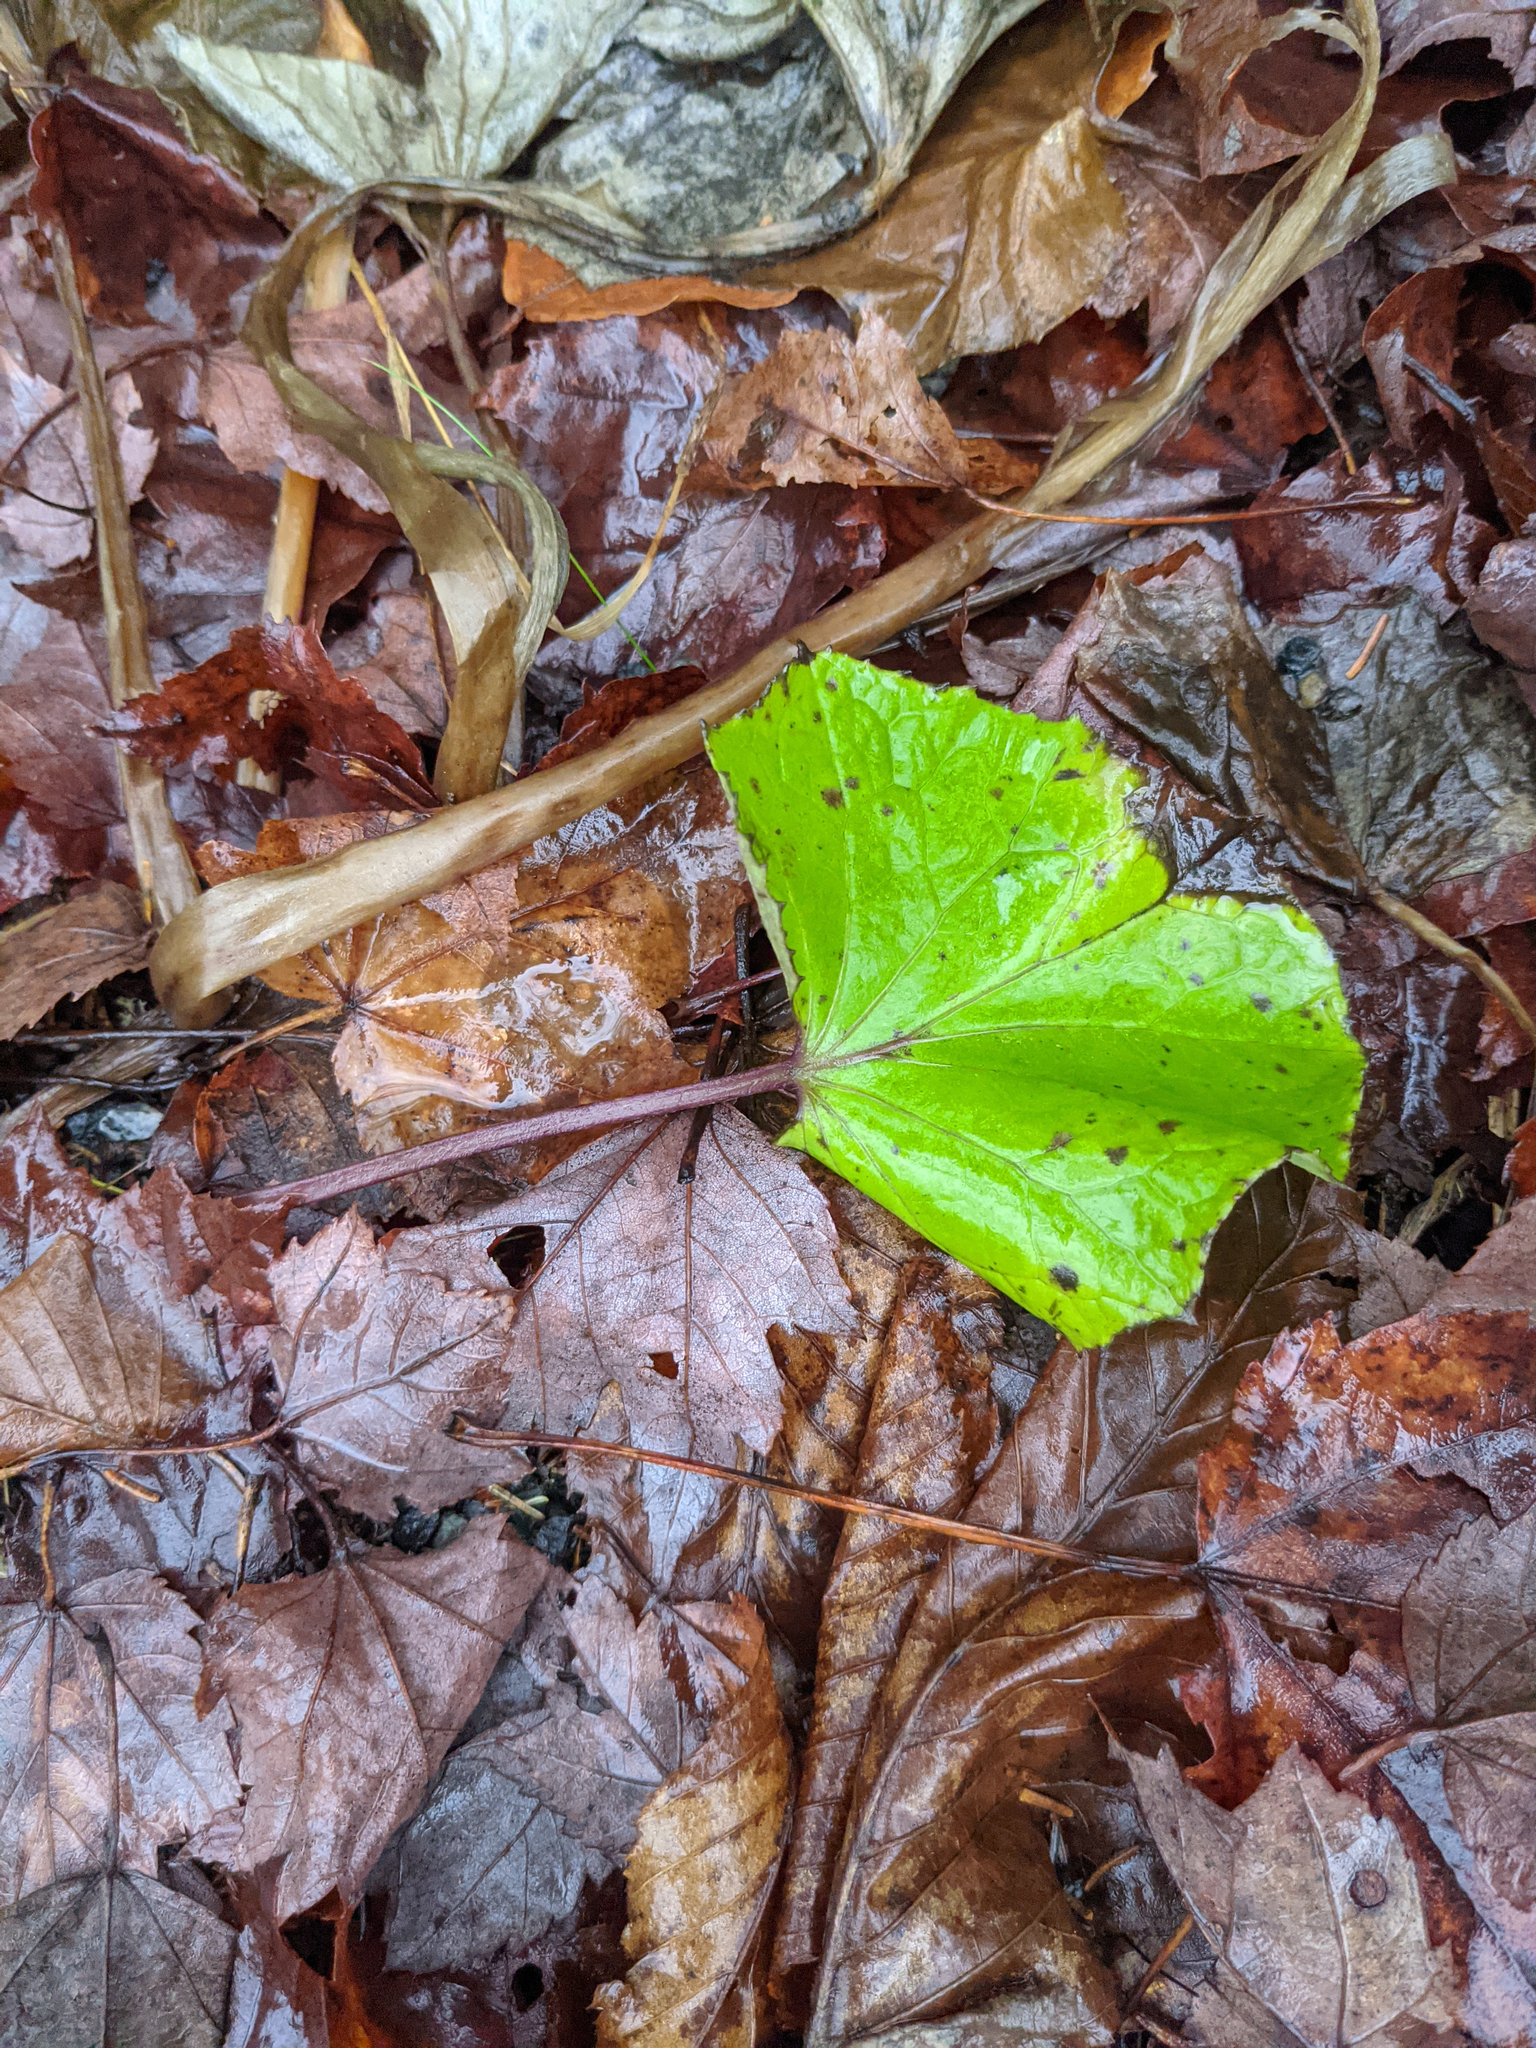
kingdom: Plantae
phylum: Tracheophyta
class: Magnoliopsida
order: Asterales
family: Asteraceae
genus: Tussilago
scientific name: Tussilago farfara
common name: Coltsfoot
